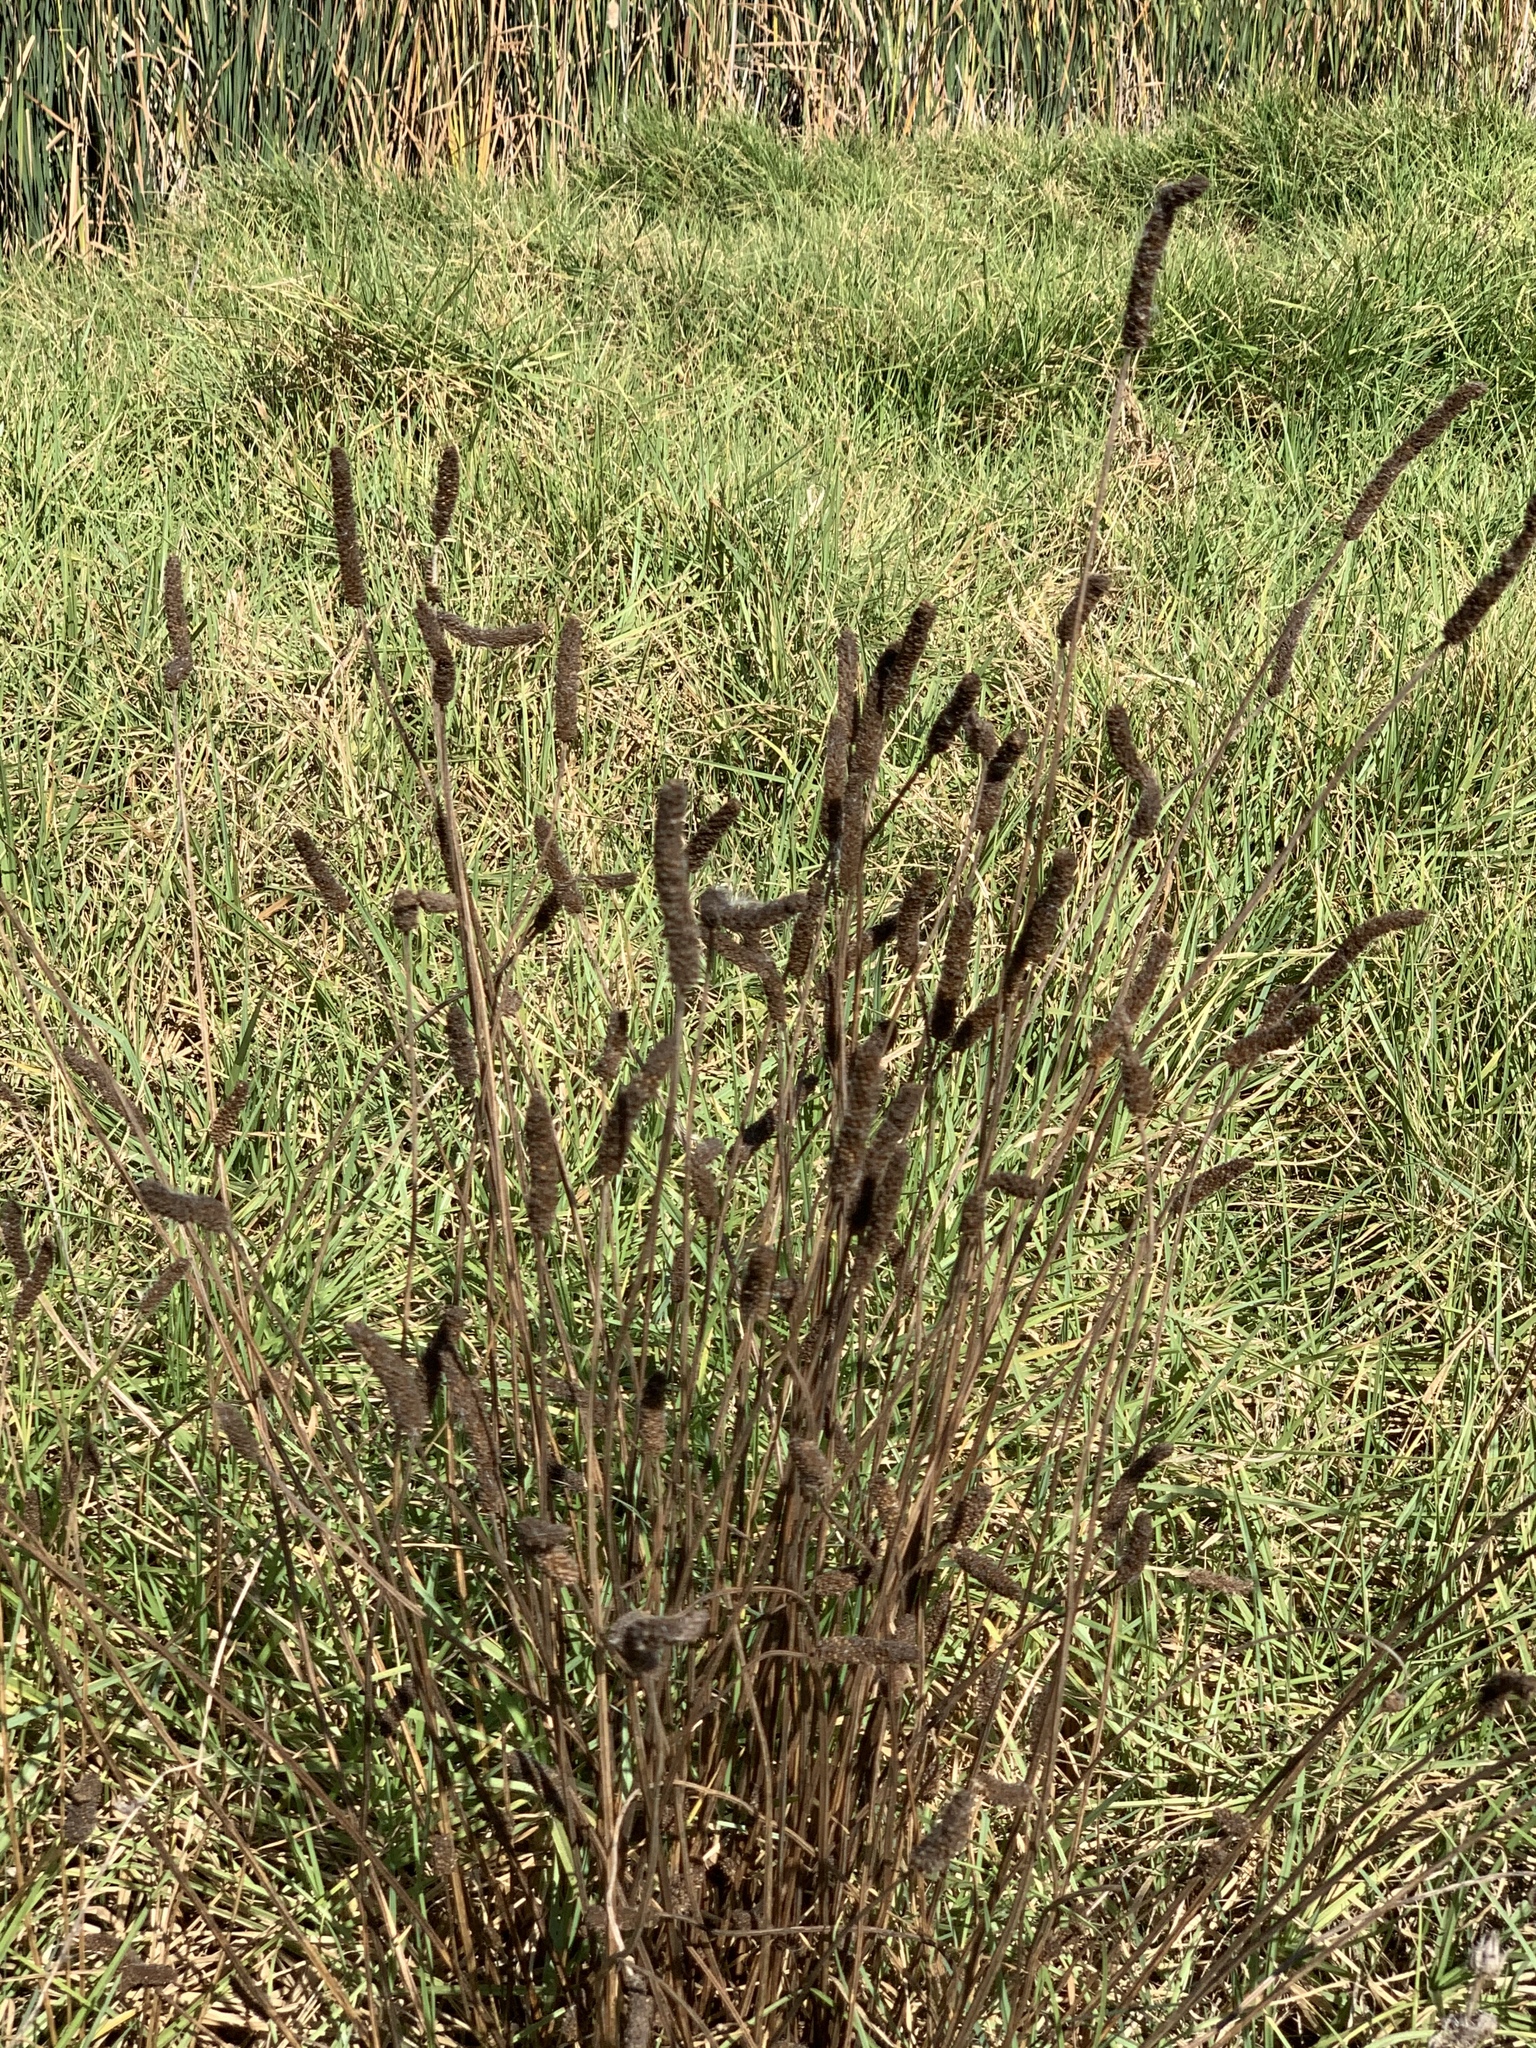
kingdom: Plantae
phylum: Tracheophyta
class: Magnoliopsida
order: Lamiales
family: Plantaginaceae
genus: Plantago
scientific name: Plantago lanceolata
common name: Ribwort plantain
